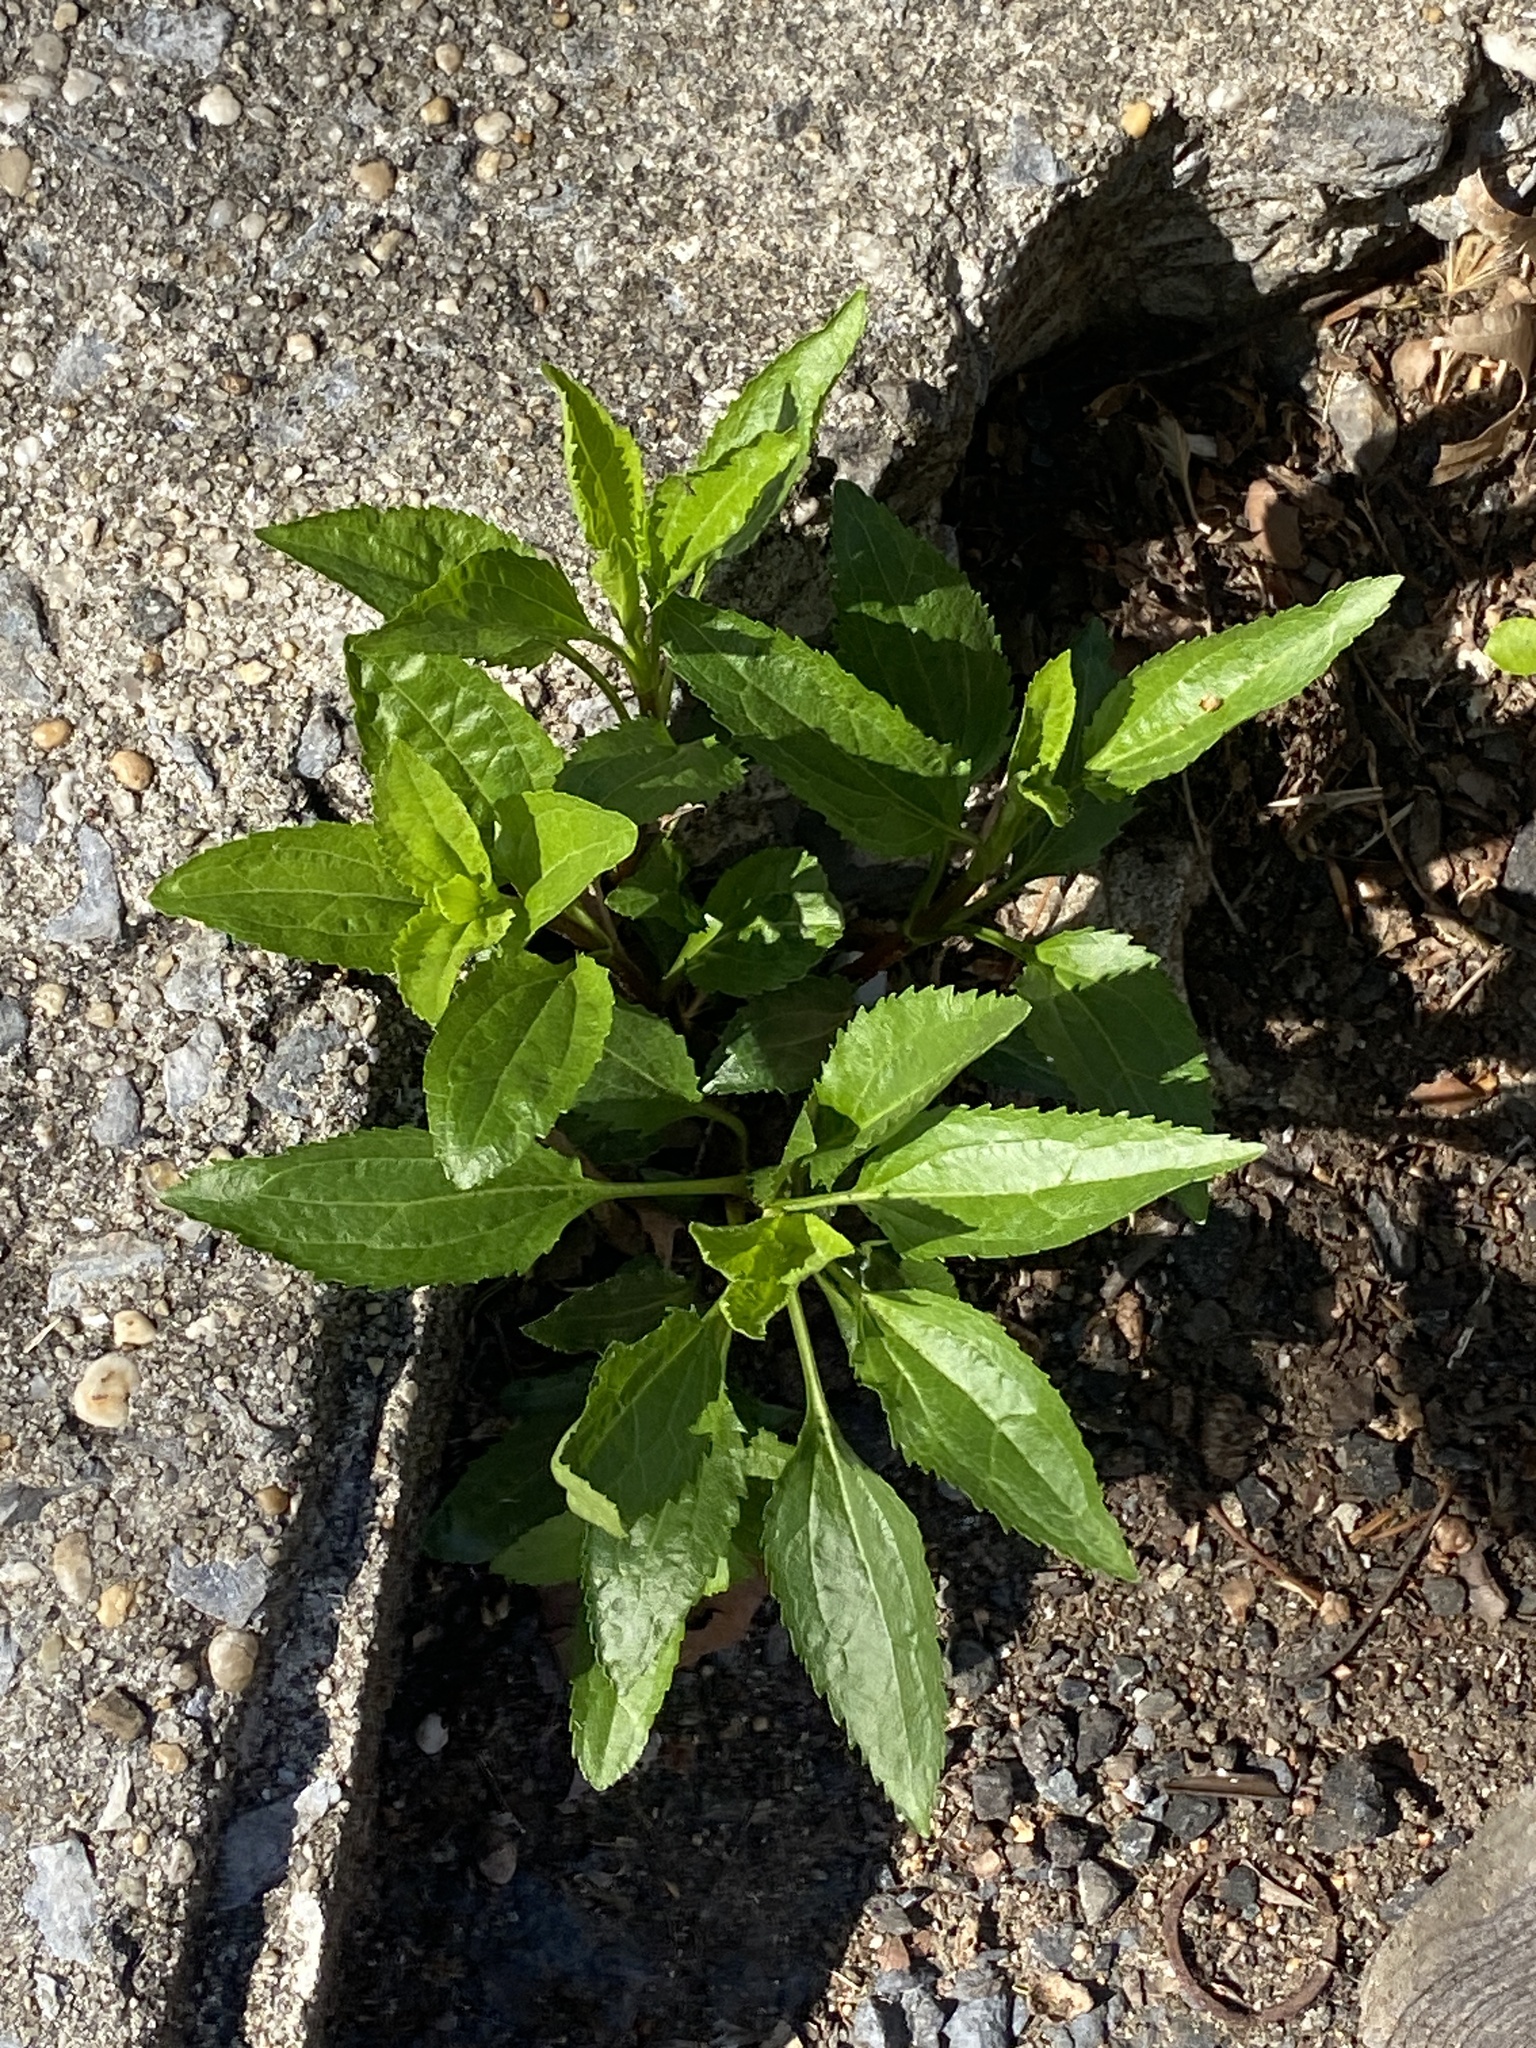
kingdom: Plantae
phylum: Tracheophyta
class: Magnoliopsida
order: Asterales
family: Asteraceae
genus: Eupatorium
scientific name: Eupatorium serotinum
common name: Late boneset
